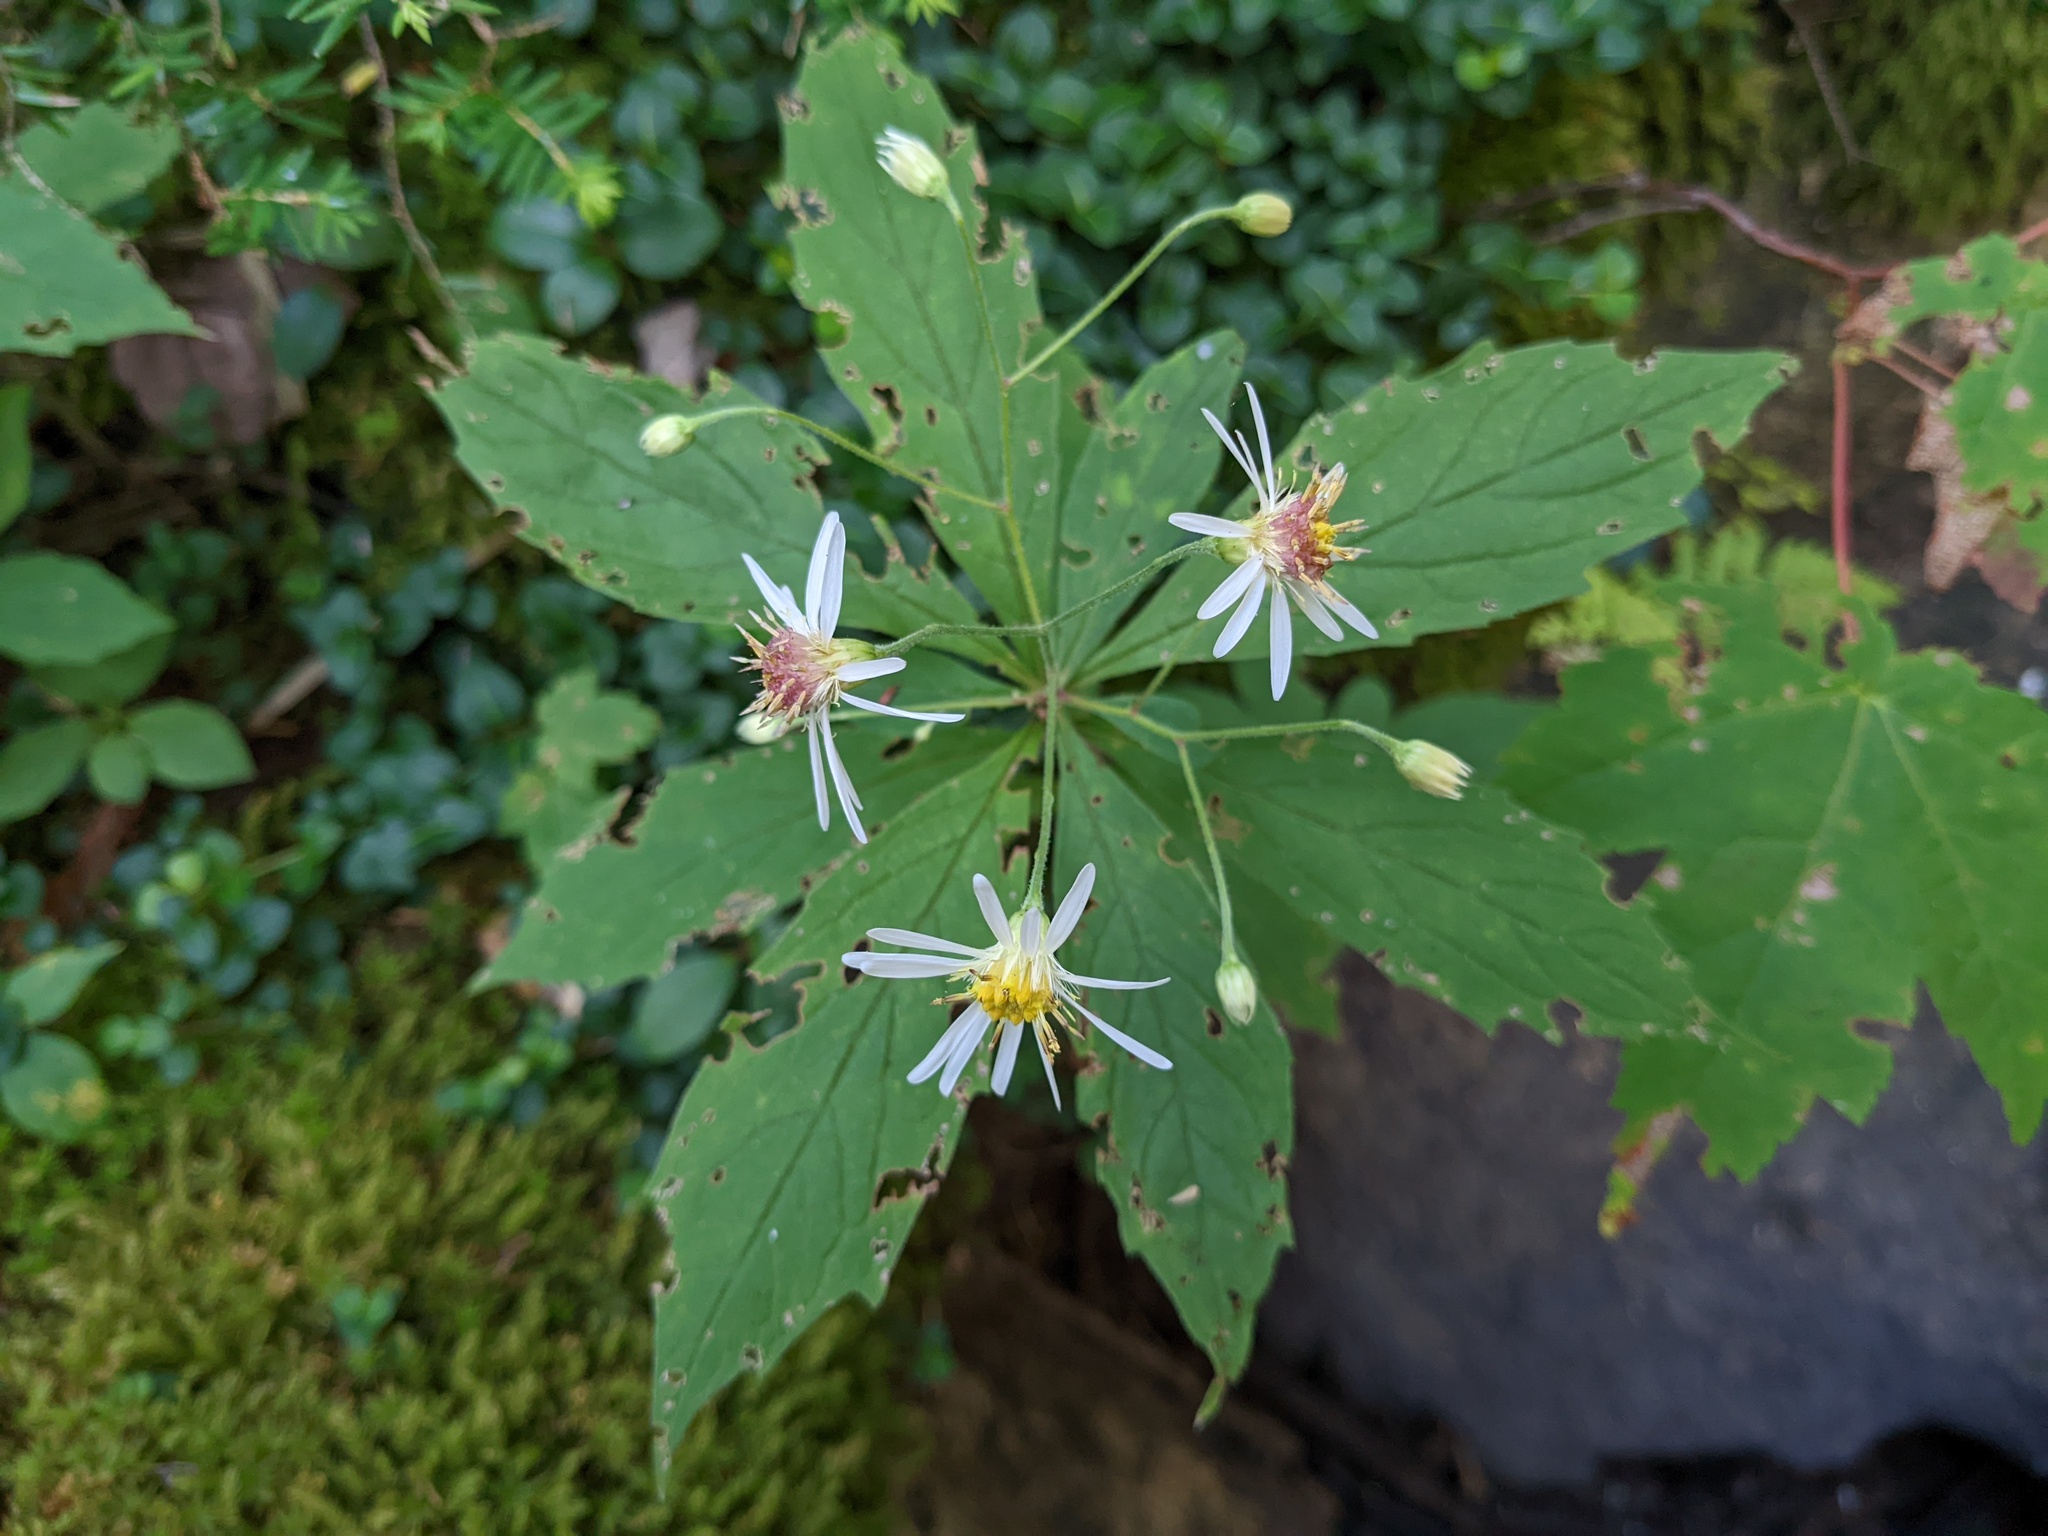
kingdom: Plantae
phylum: Tracheophyta
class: Magnoliopsida
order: Asterales
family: Asteraceae
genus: Oclemena
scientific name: Oclemena acuminata
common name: Mountain aster
